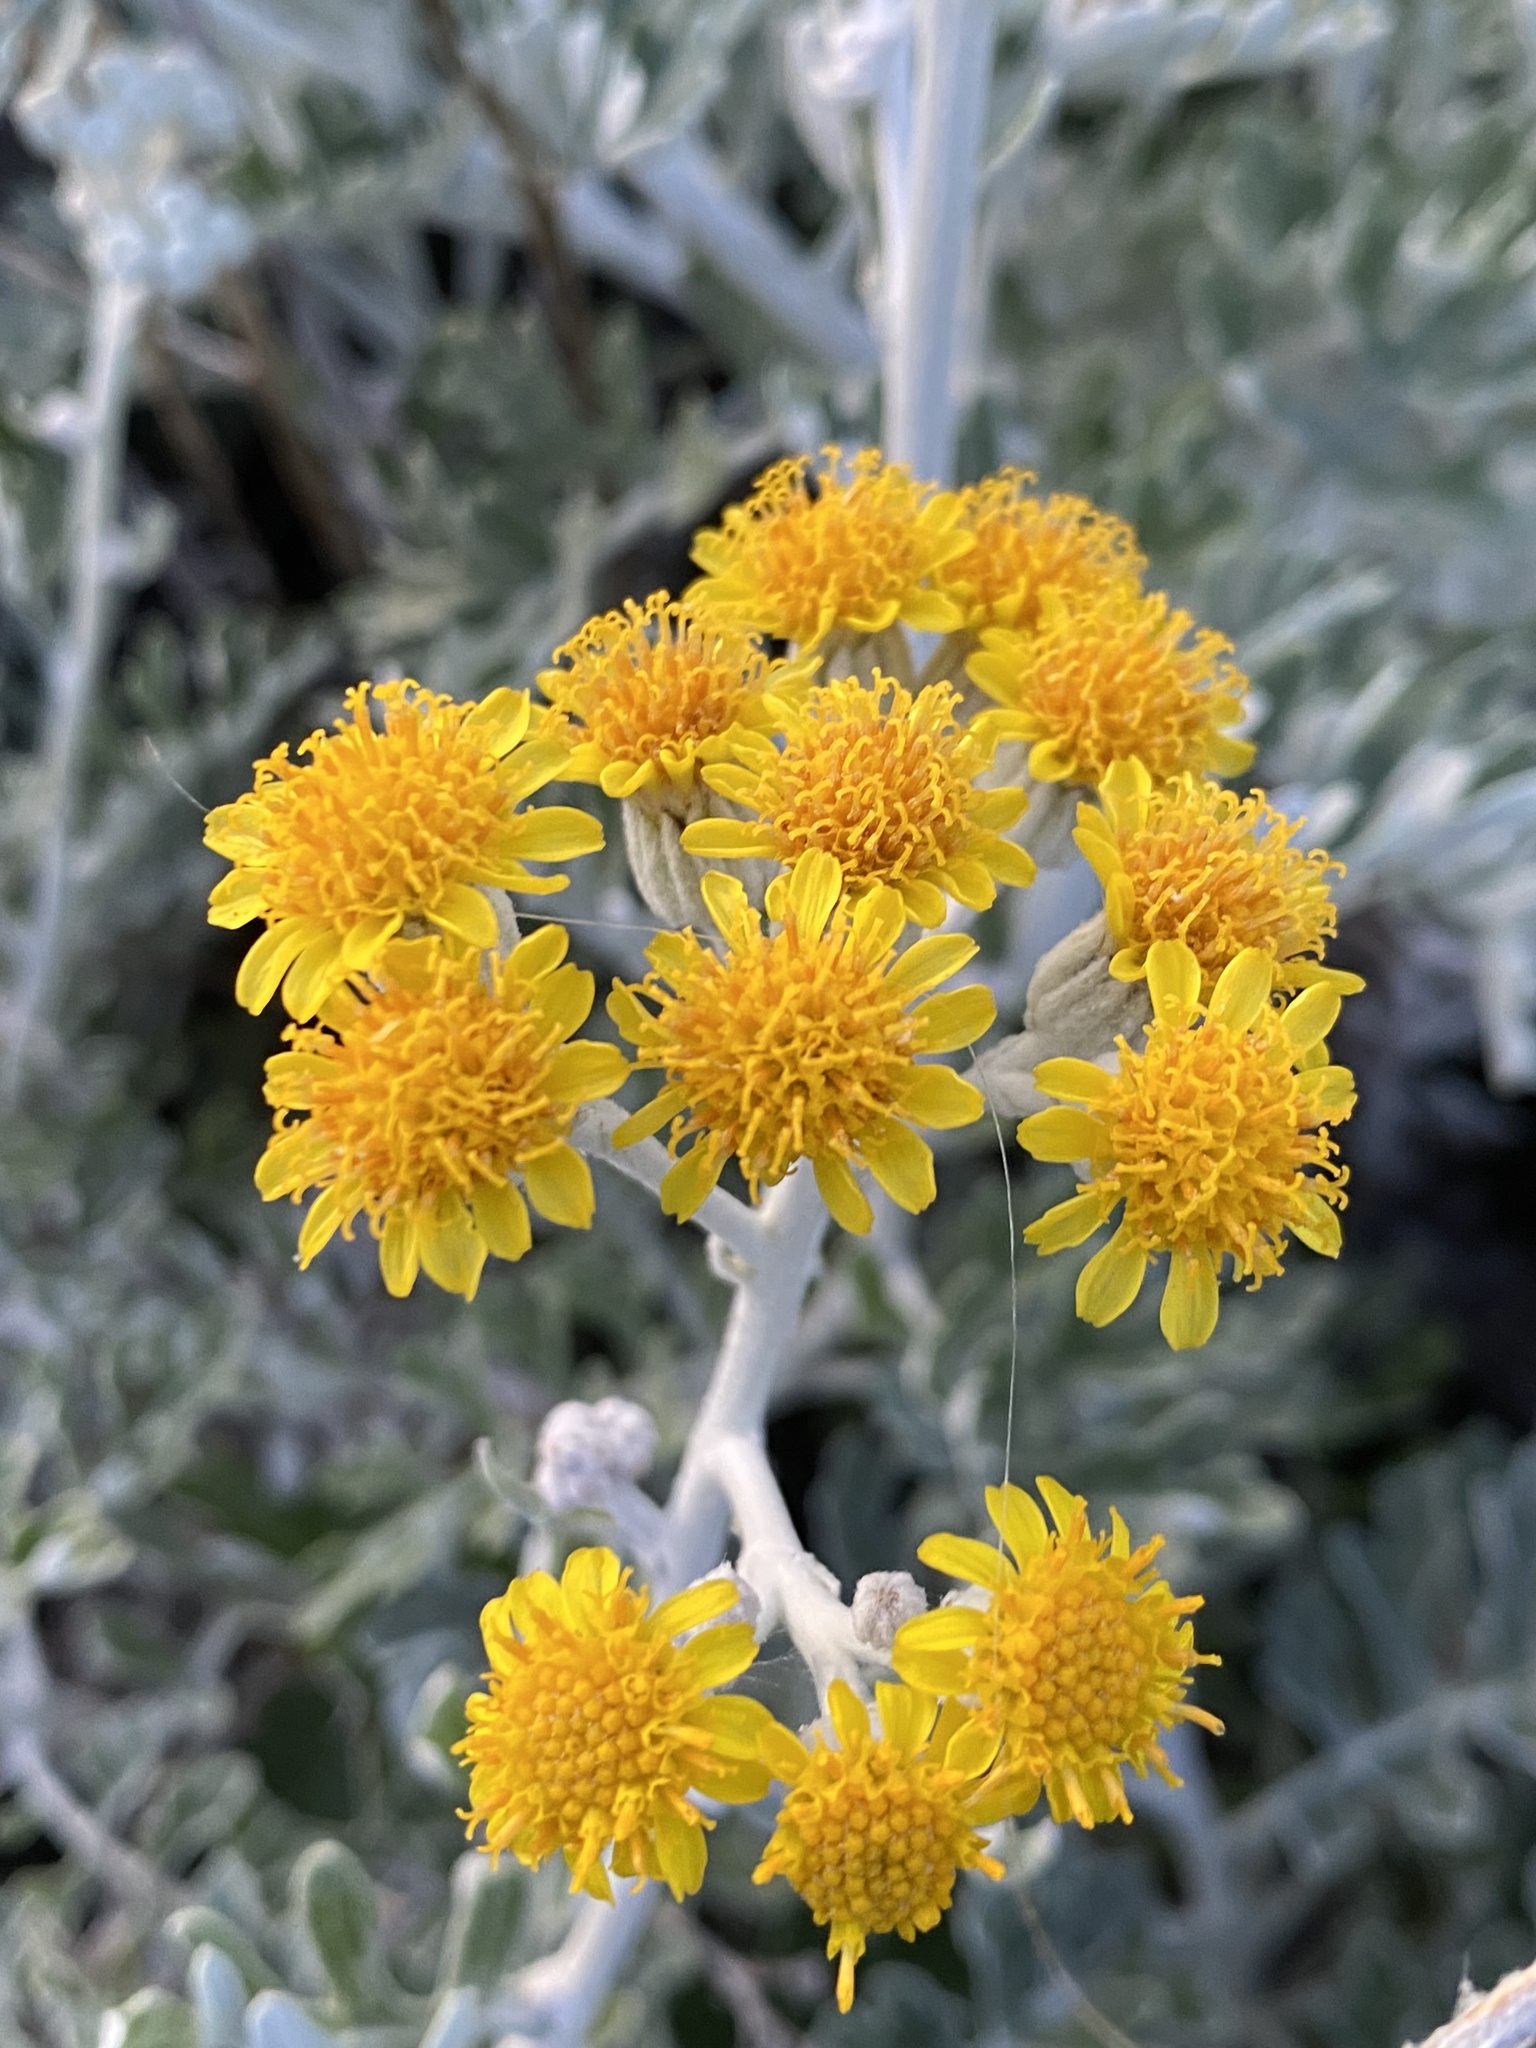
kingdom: Plantae
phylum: Tracheophyta
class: Magnoliopsida
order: Asterales
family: Asteraceae
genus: Jacobaea
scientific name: Jacobaea maritima
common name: Silver ragwort
